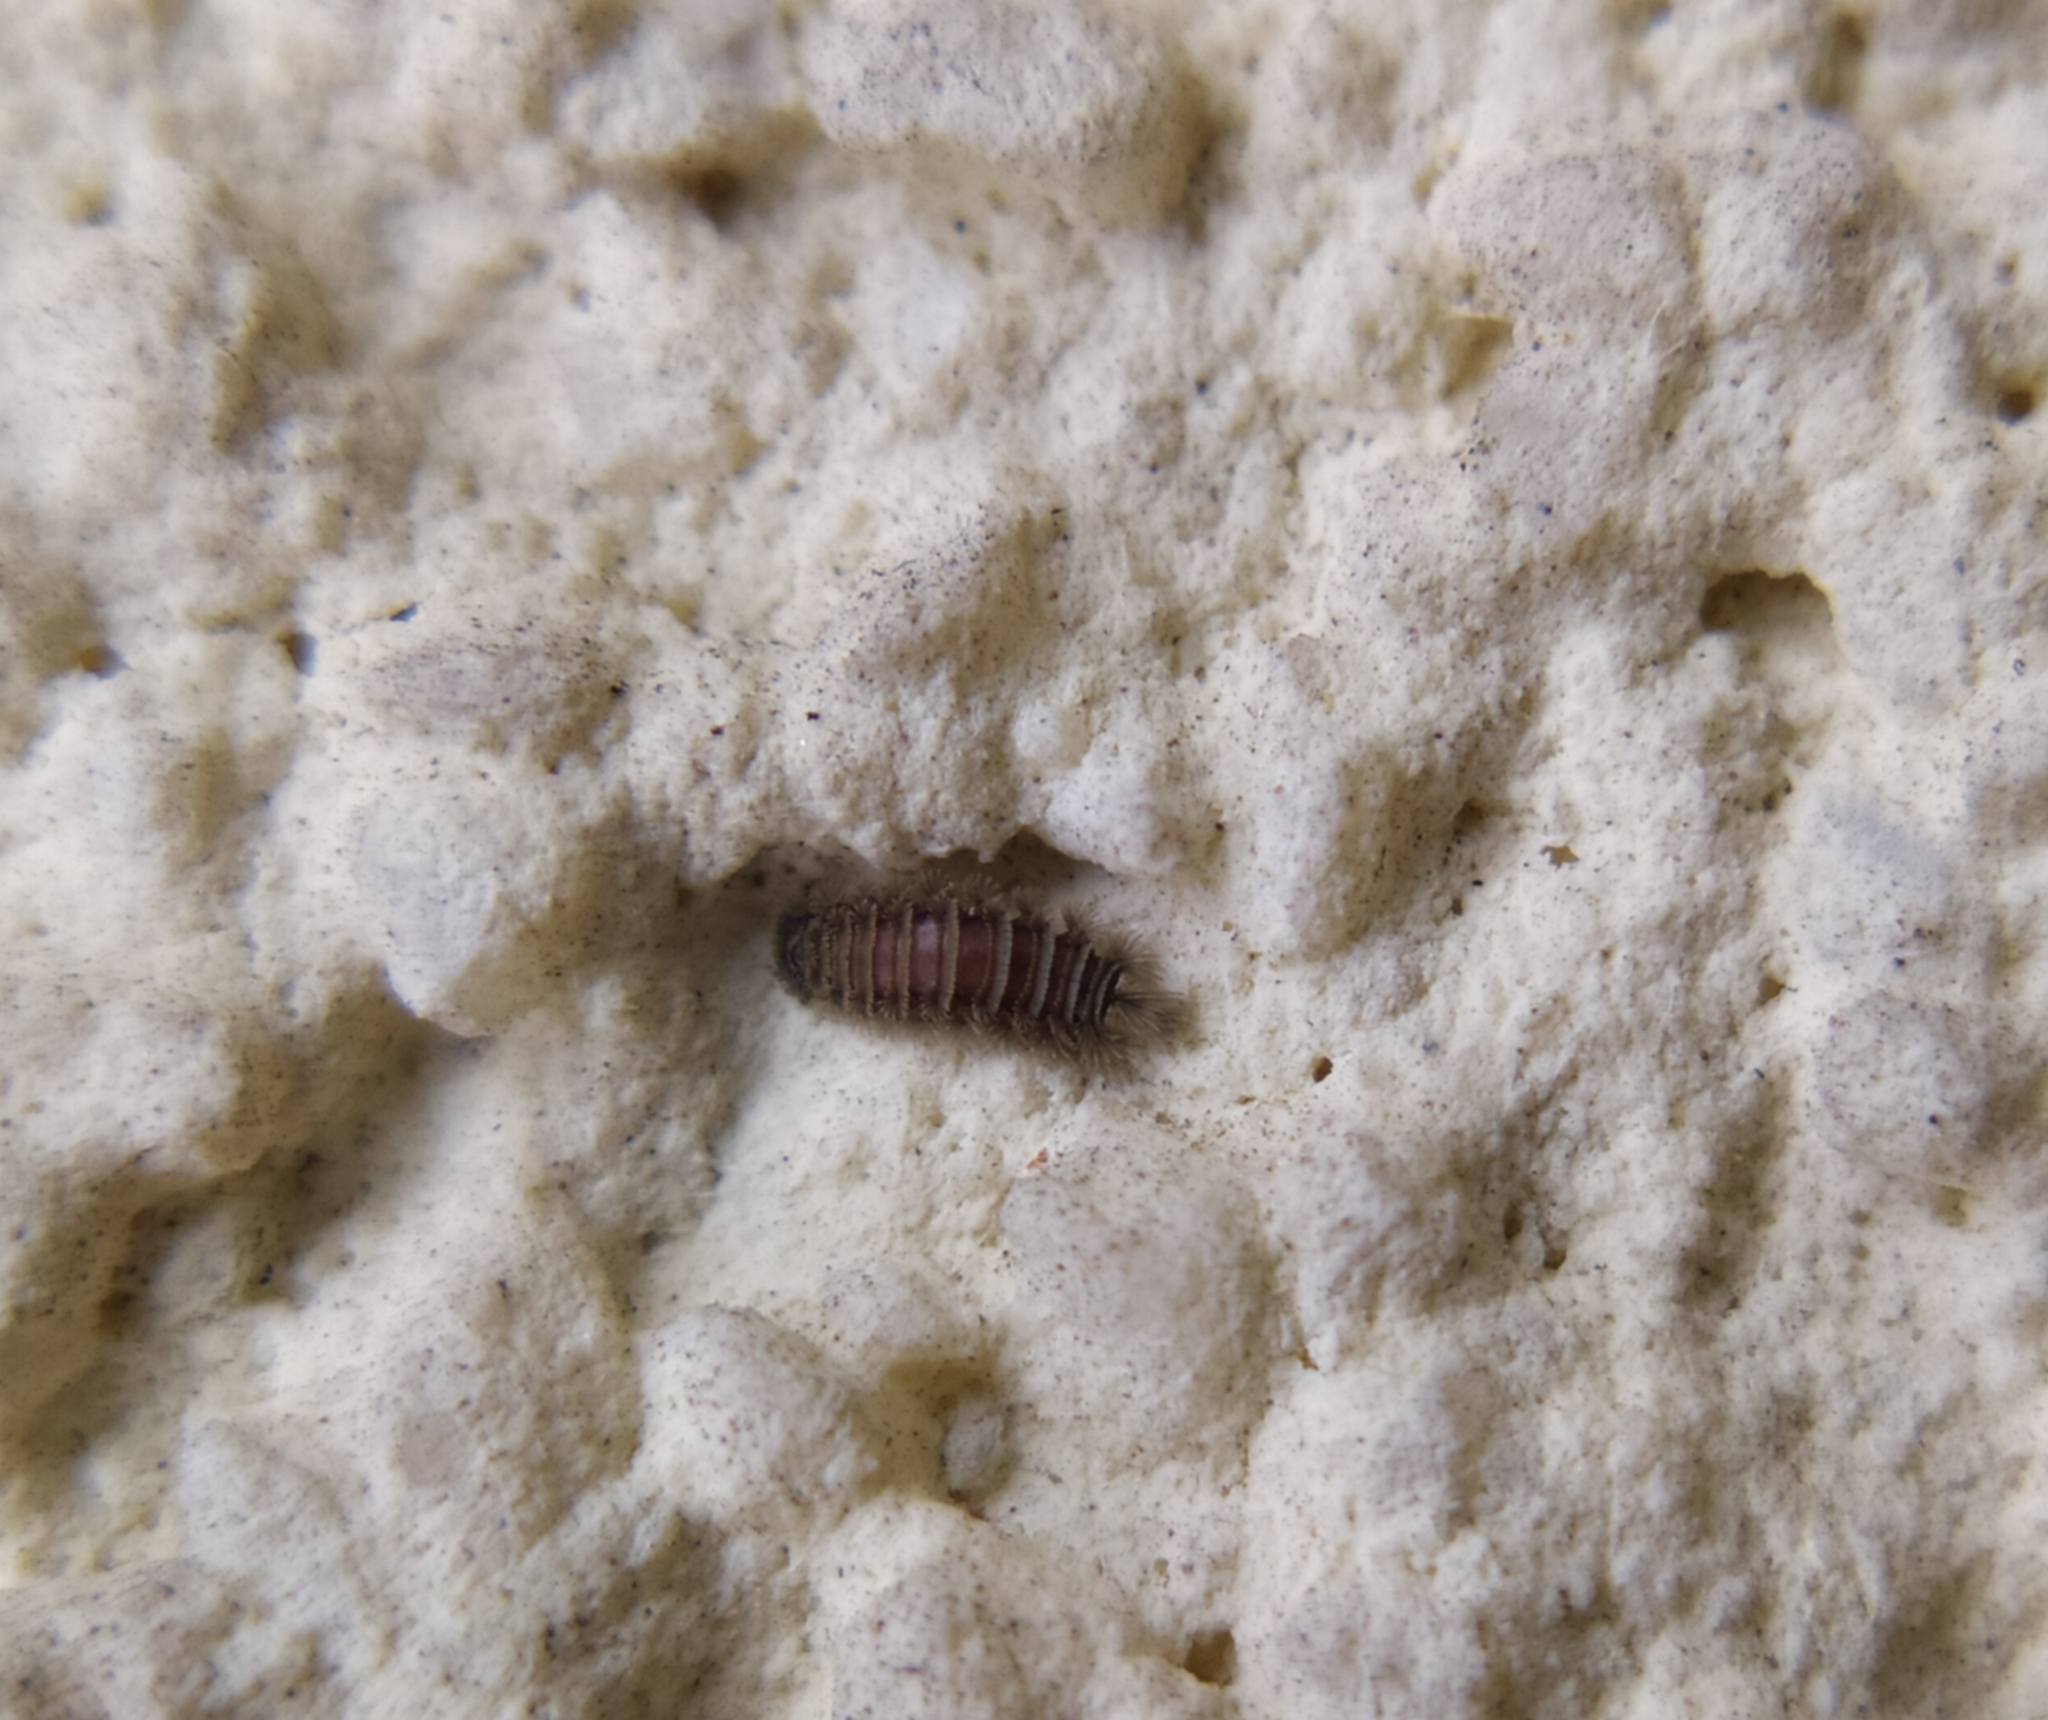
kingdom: Animalia
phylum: Arthropoda
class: Diplopoda
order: Polyxenida
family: Polyxenidae
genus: Polyxenus
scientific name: Polyxenus lagurus
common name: Bristly millipede
